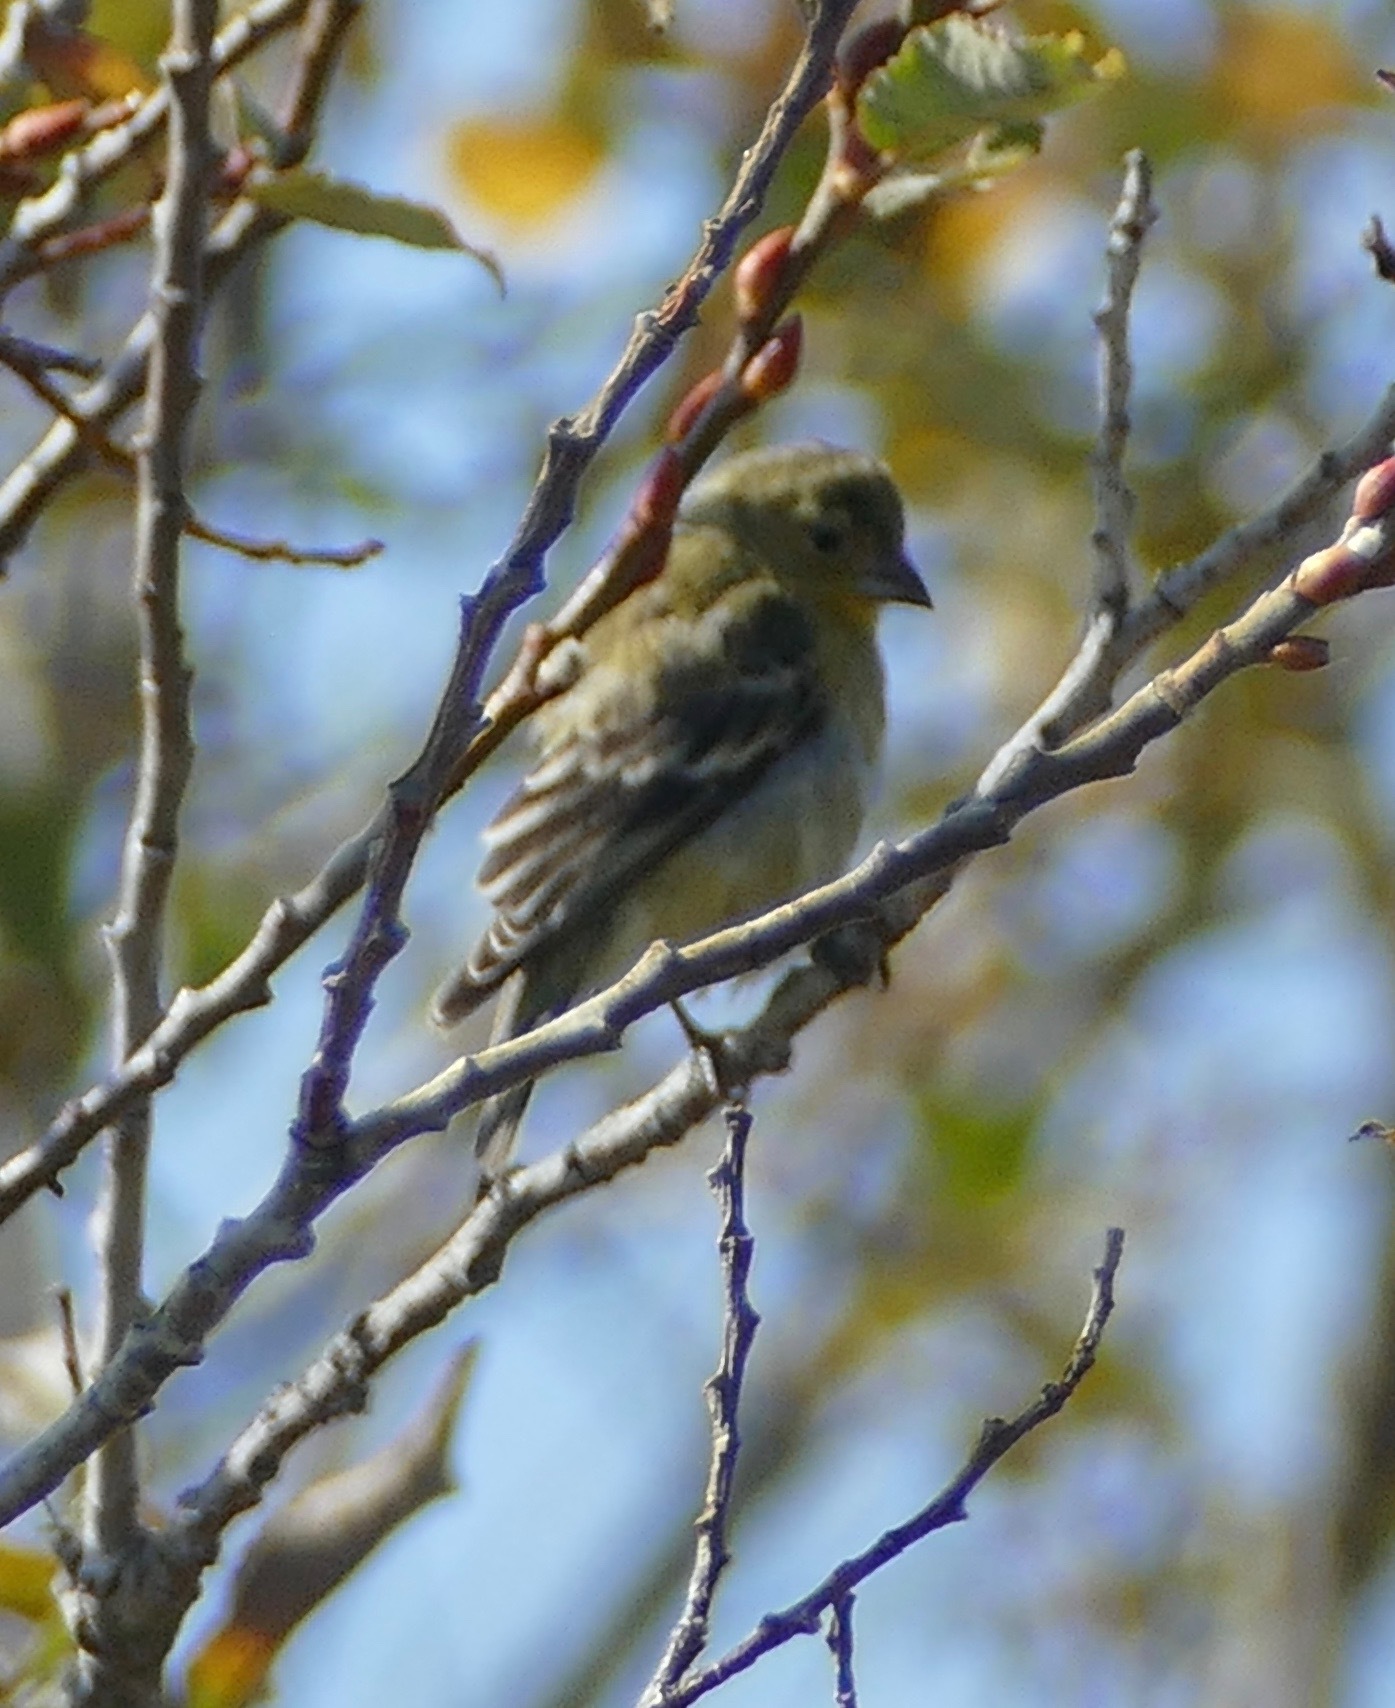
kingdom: Animalia
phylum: Chordata
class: Aves
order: Passeriformes
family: Fringillidae
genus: Spinus
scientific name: Spinus psaltria
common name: Lesser goldfinch
